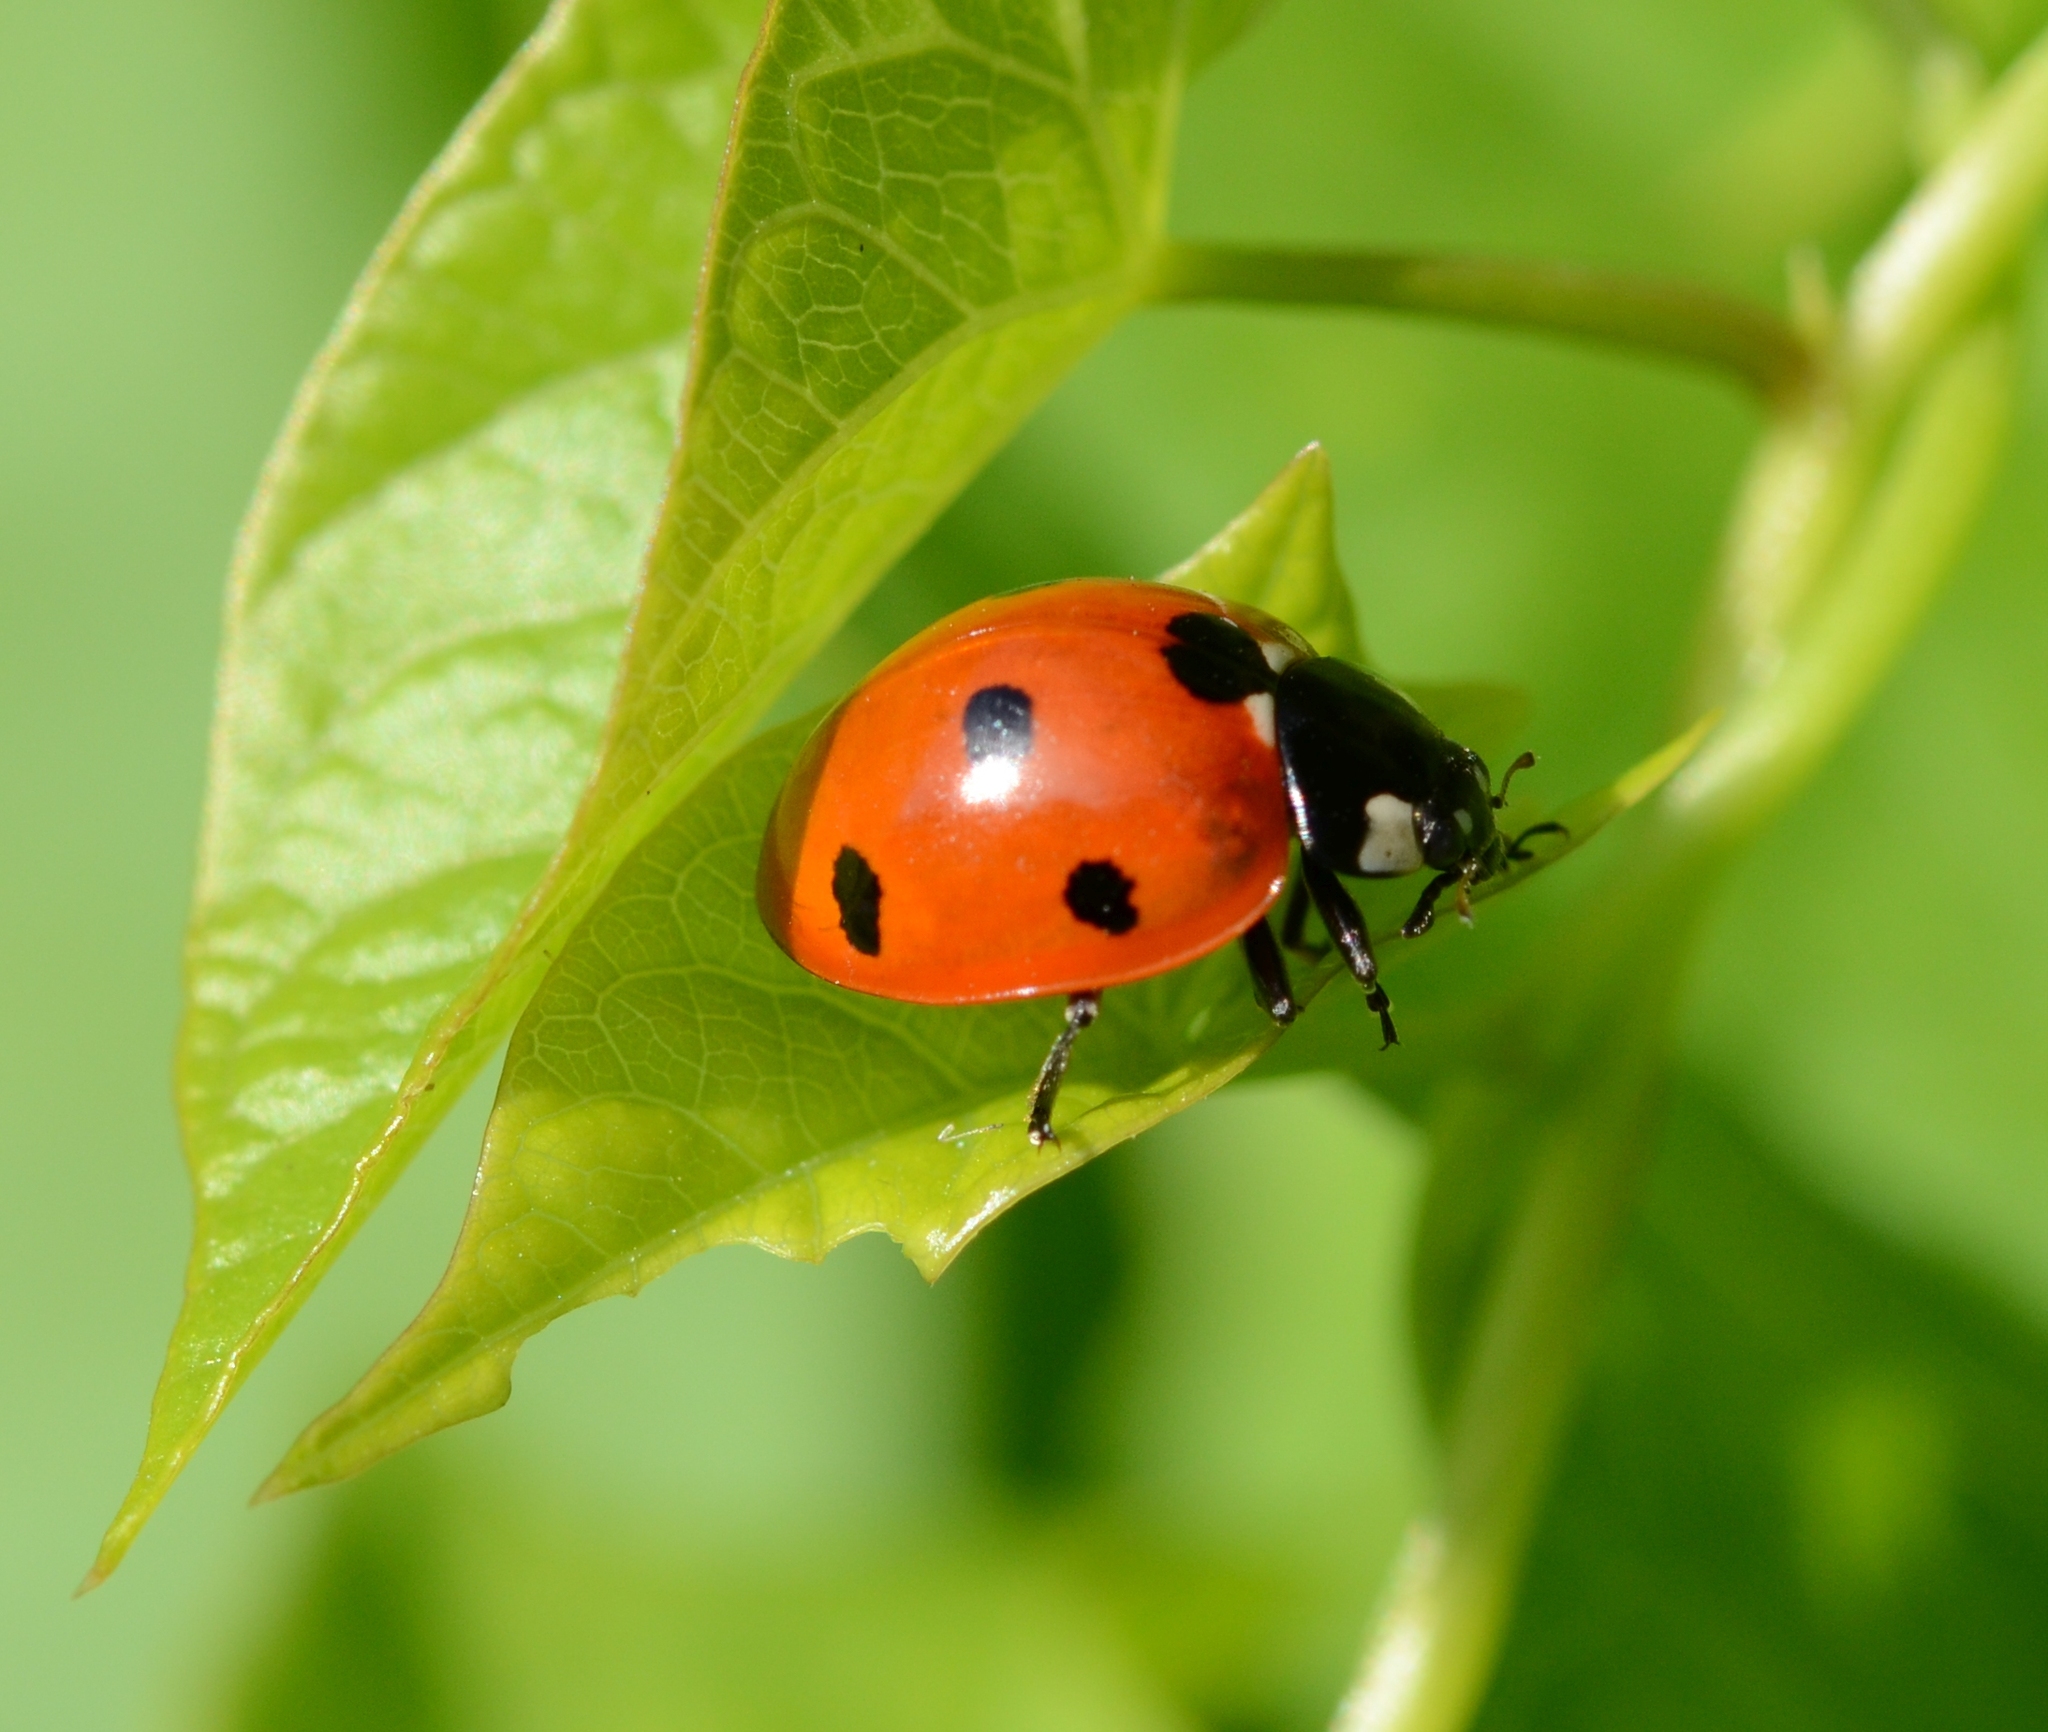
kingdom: Animalia
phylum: Arthropoda
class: Insecta
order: Coleoptera
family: Coccinellidae
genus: Coccinella
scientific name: Coccinella septempunctata
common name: Sevenspotted lady beetle
